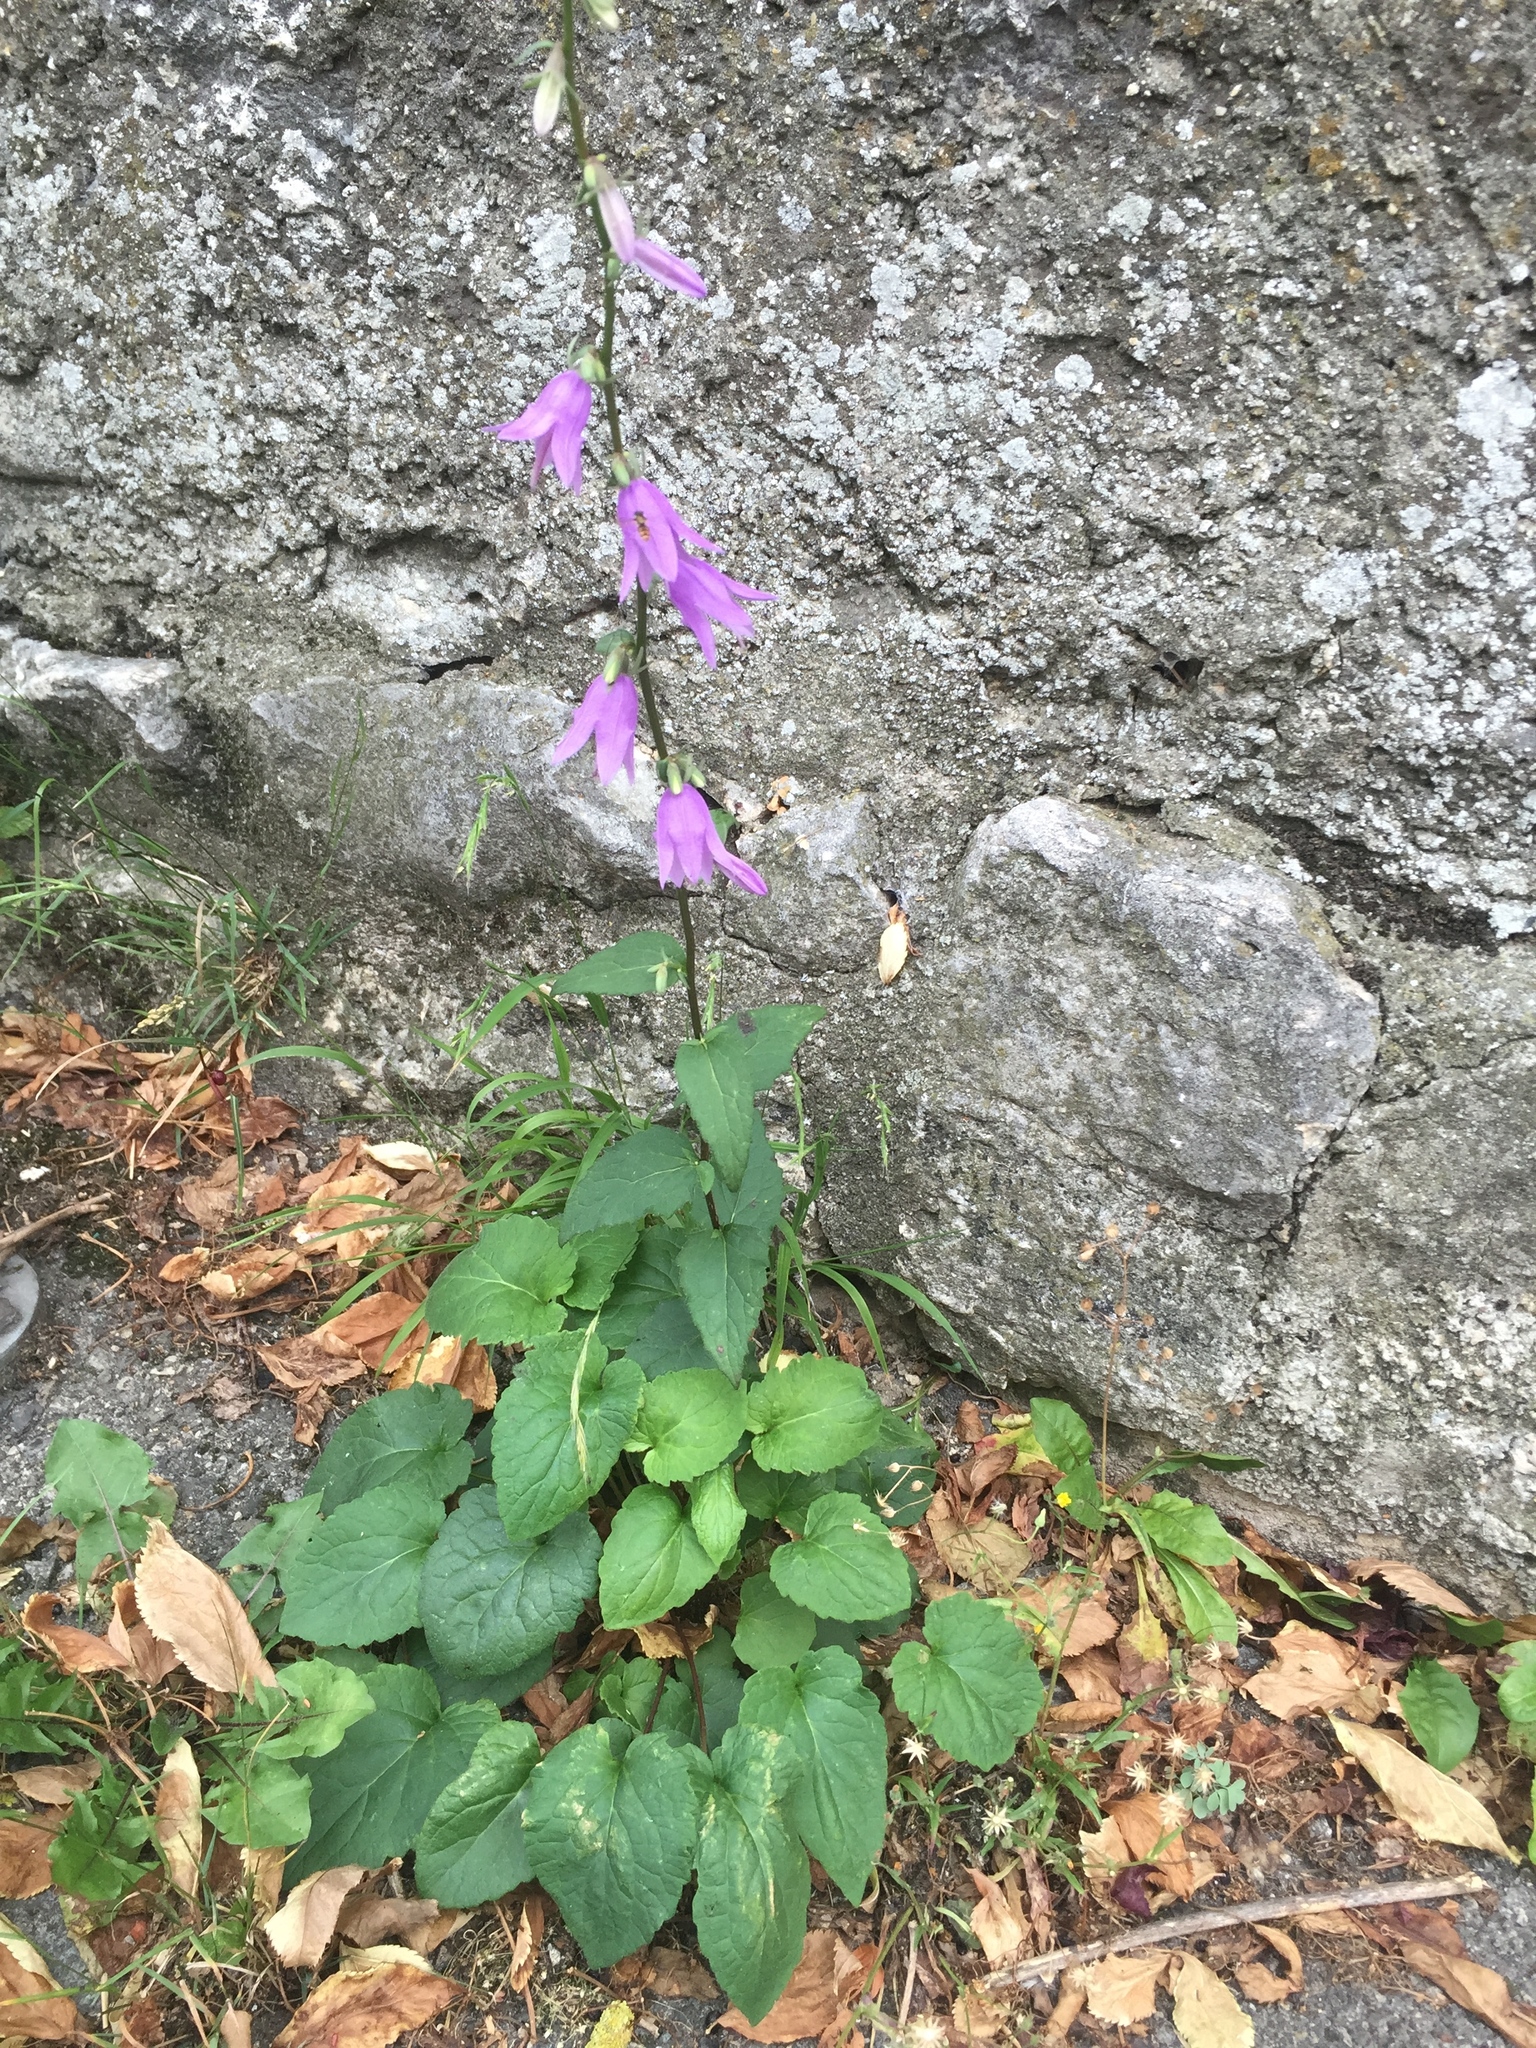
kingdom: Plantae
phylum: Tracheophyta
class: Magnoliopsida
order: Asterales
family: Campanulaceae
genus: Campanula
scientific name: Campanula rapunculoides
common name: Creeping bellflower
